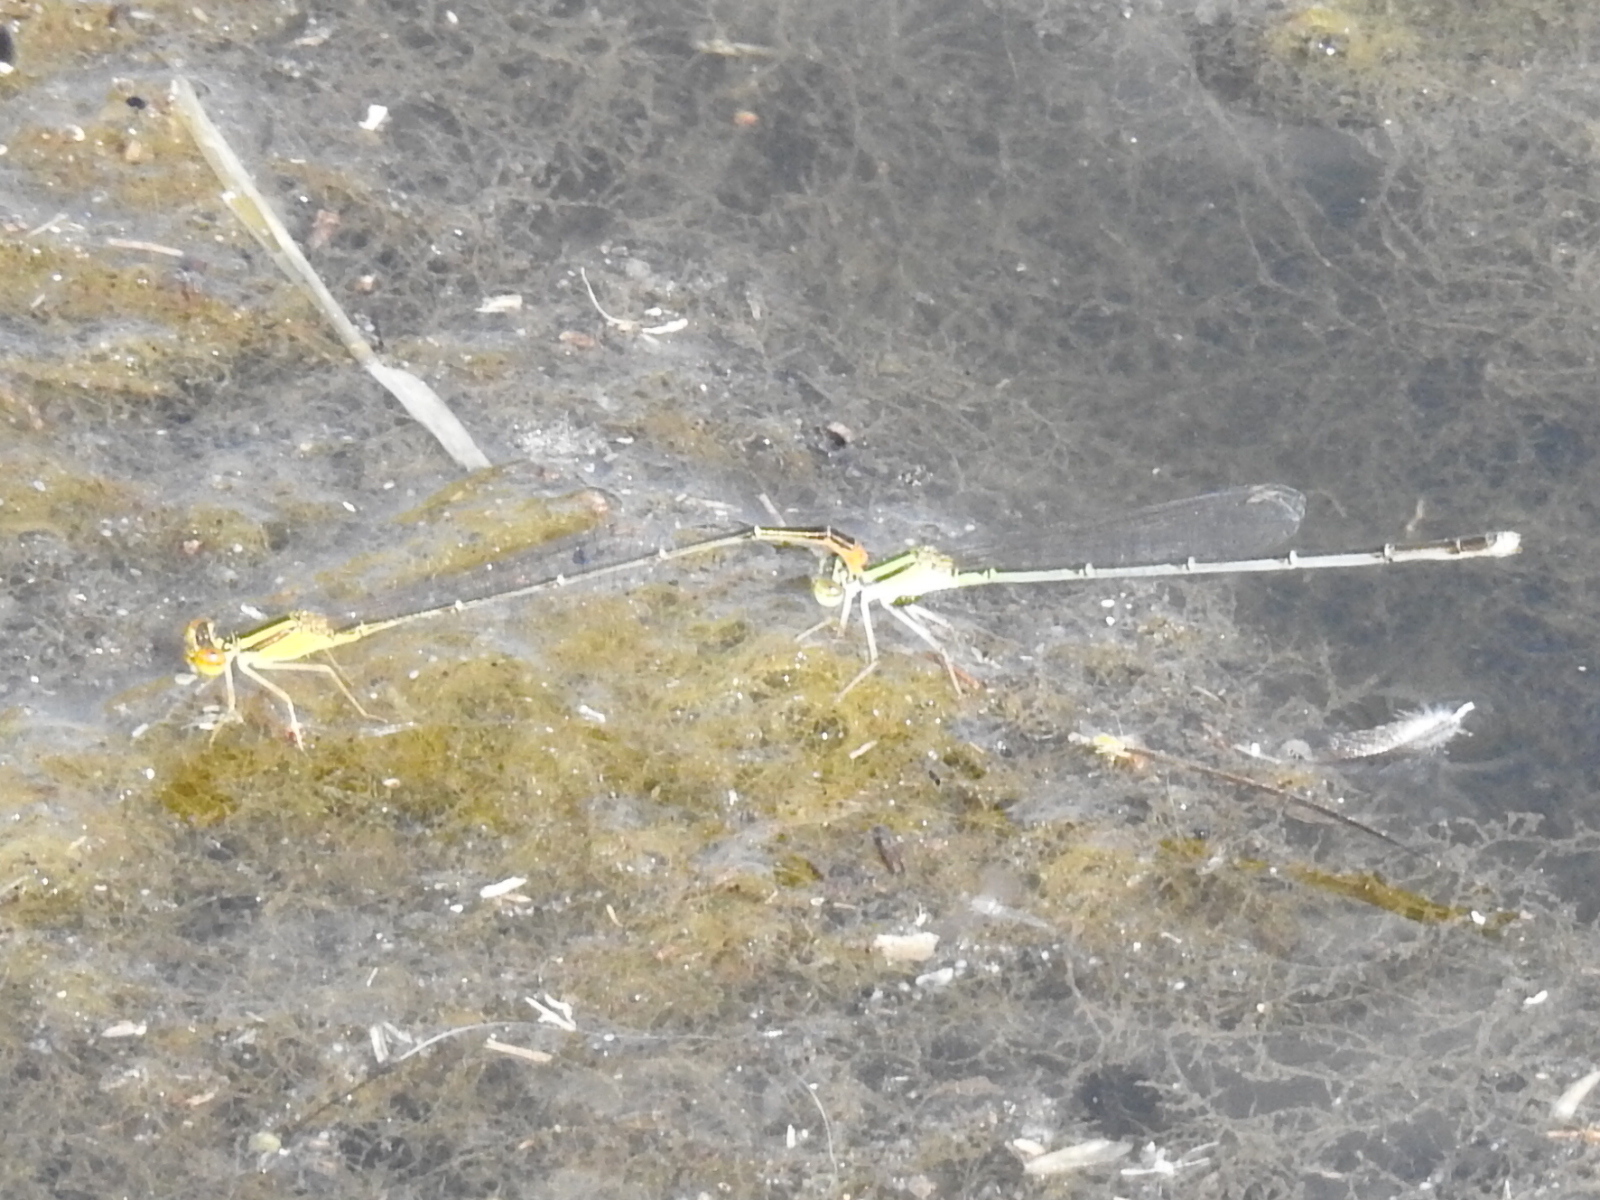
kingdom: Animalia
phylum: Arthropoda
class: Insecta
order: Odonata
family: Coenagrionidae
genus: Enallagma
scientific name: Enallagma signatum
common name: Orange bluet
